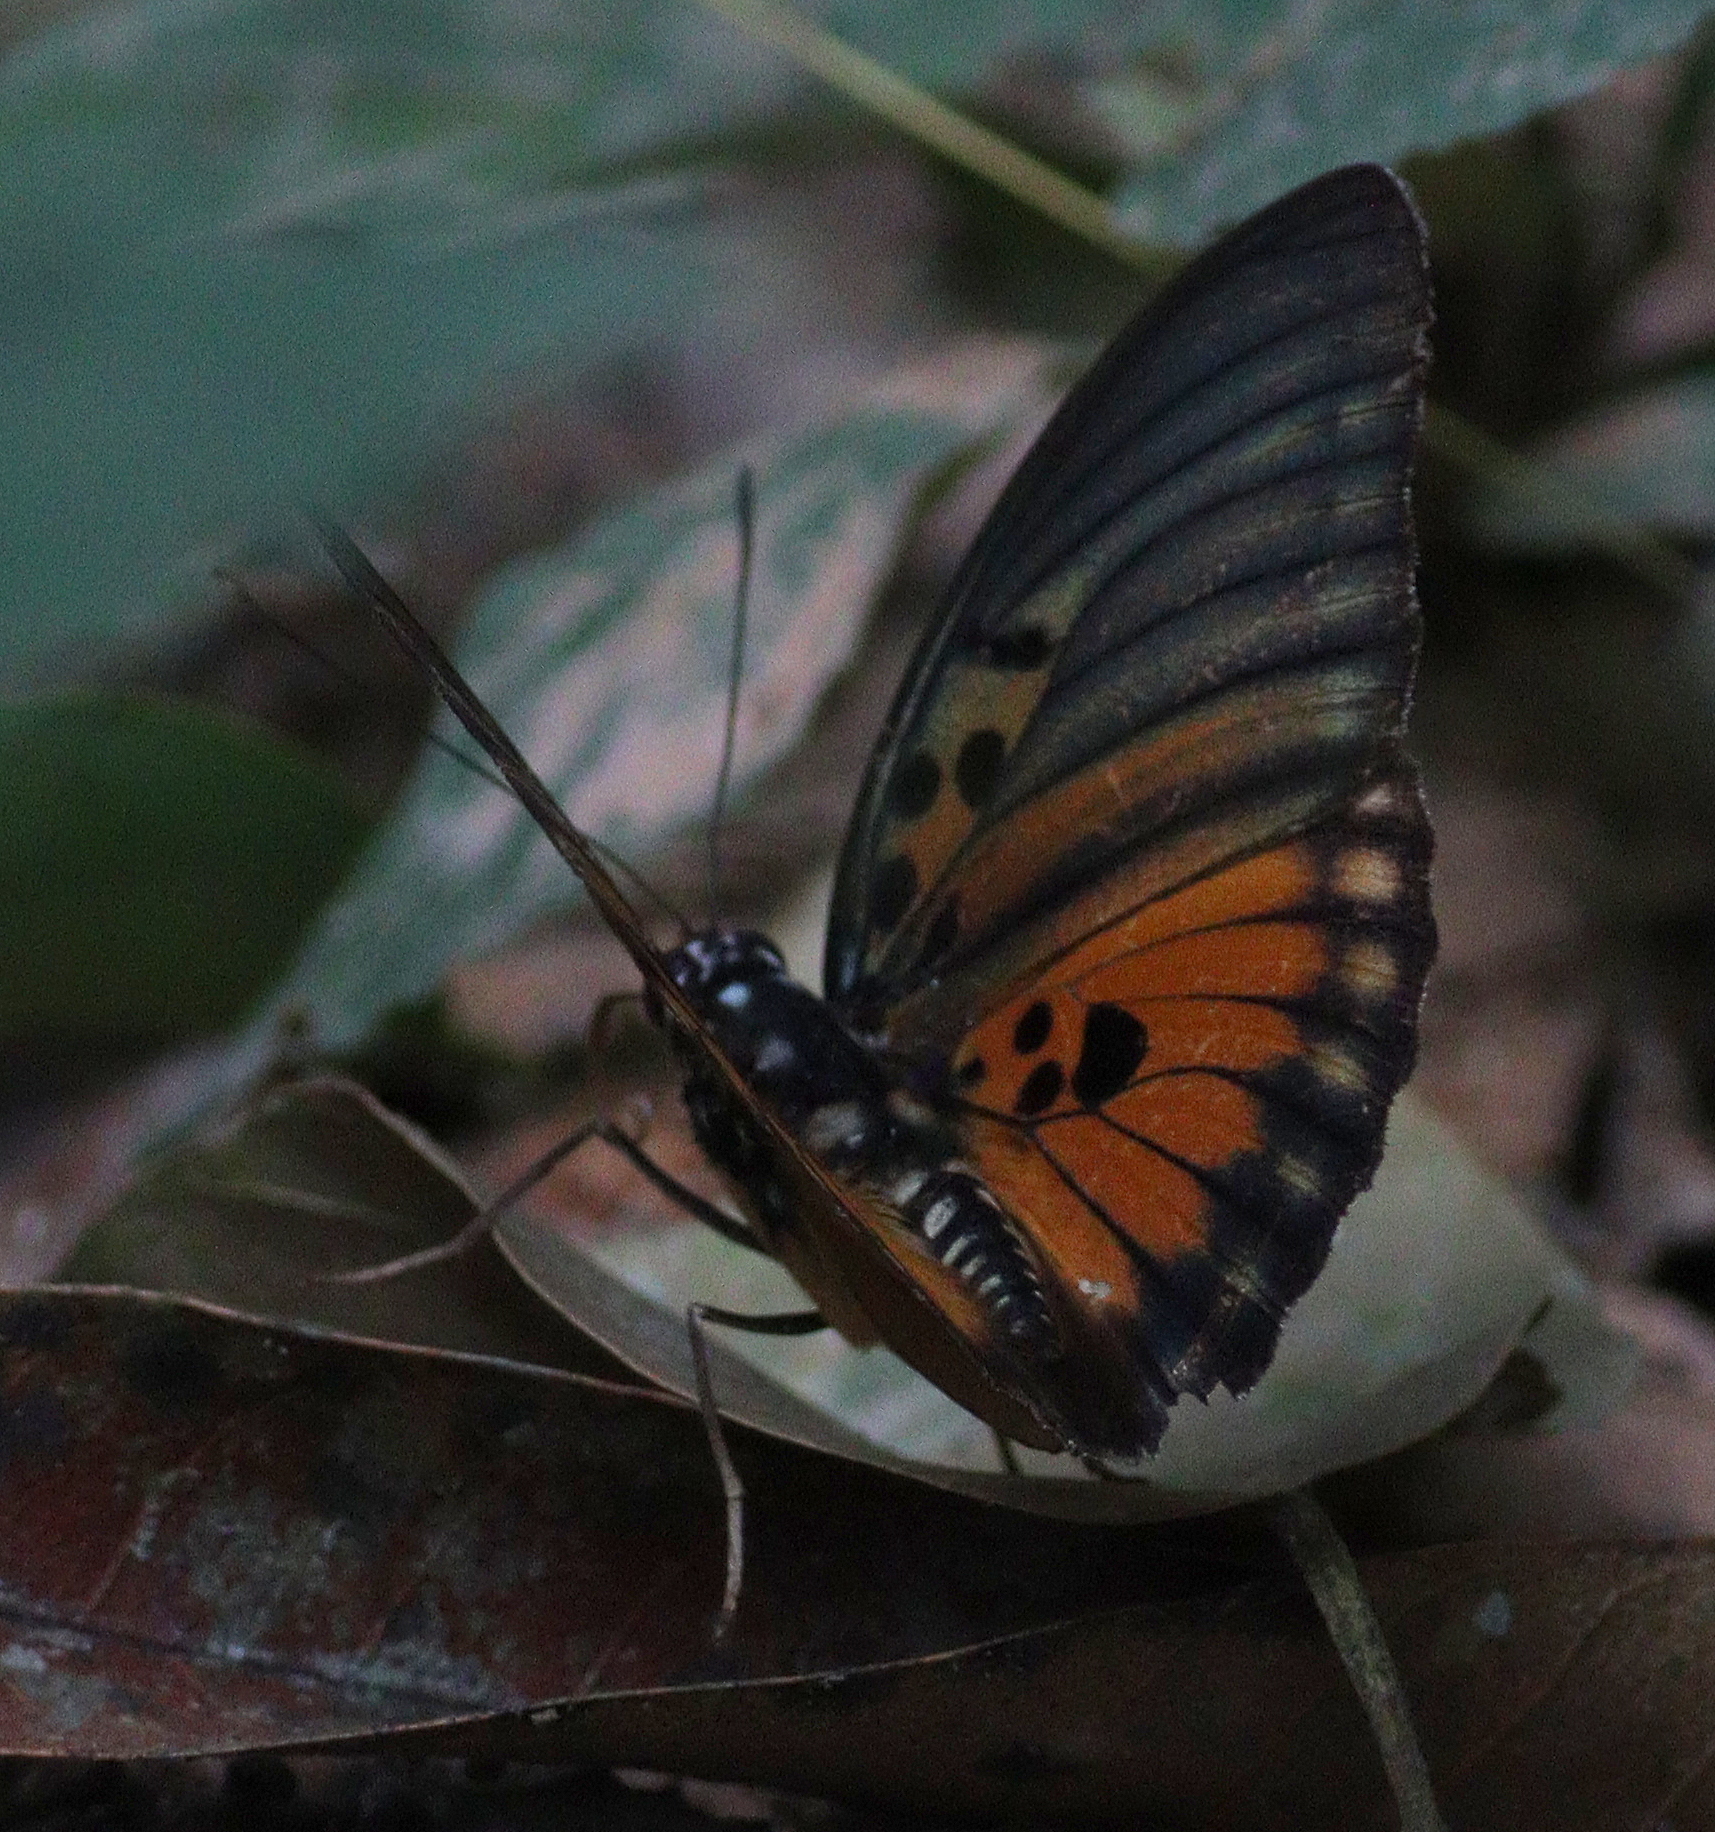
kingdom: Animalia
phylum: Arthropoda
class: Insecta
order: Lepidoptera
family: Nymphalidae
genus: Euphaedra
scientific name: Euphaedra edwardsii
